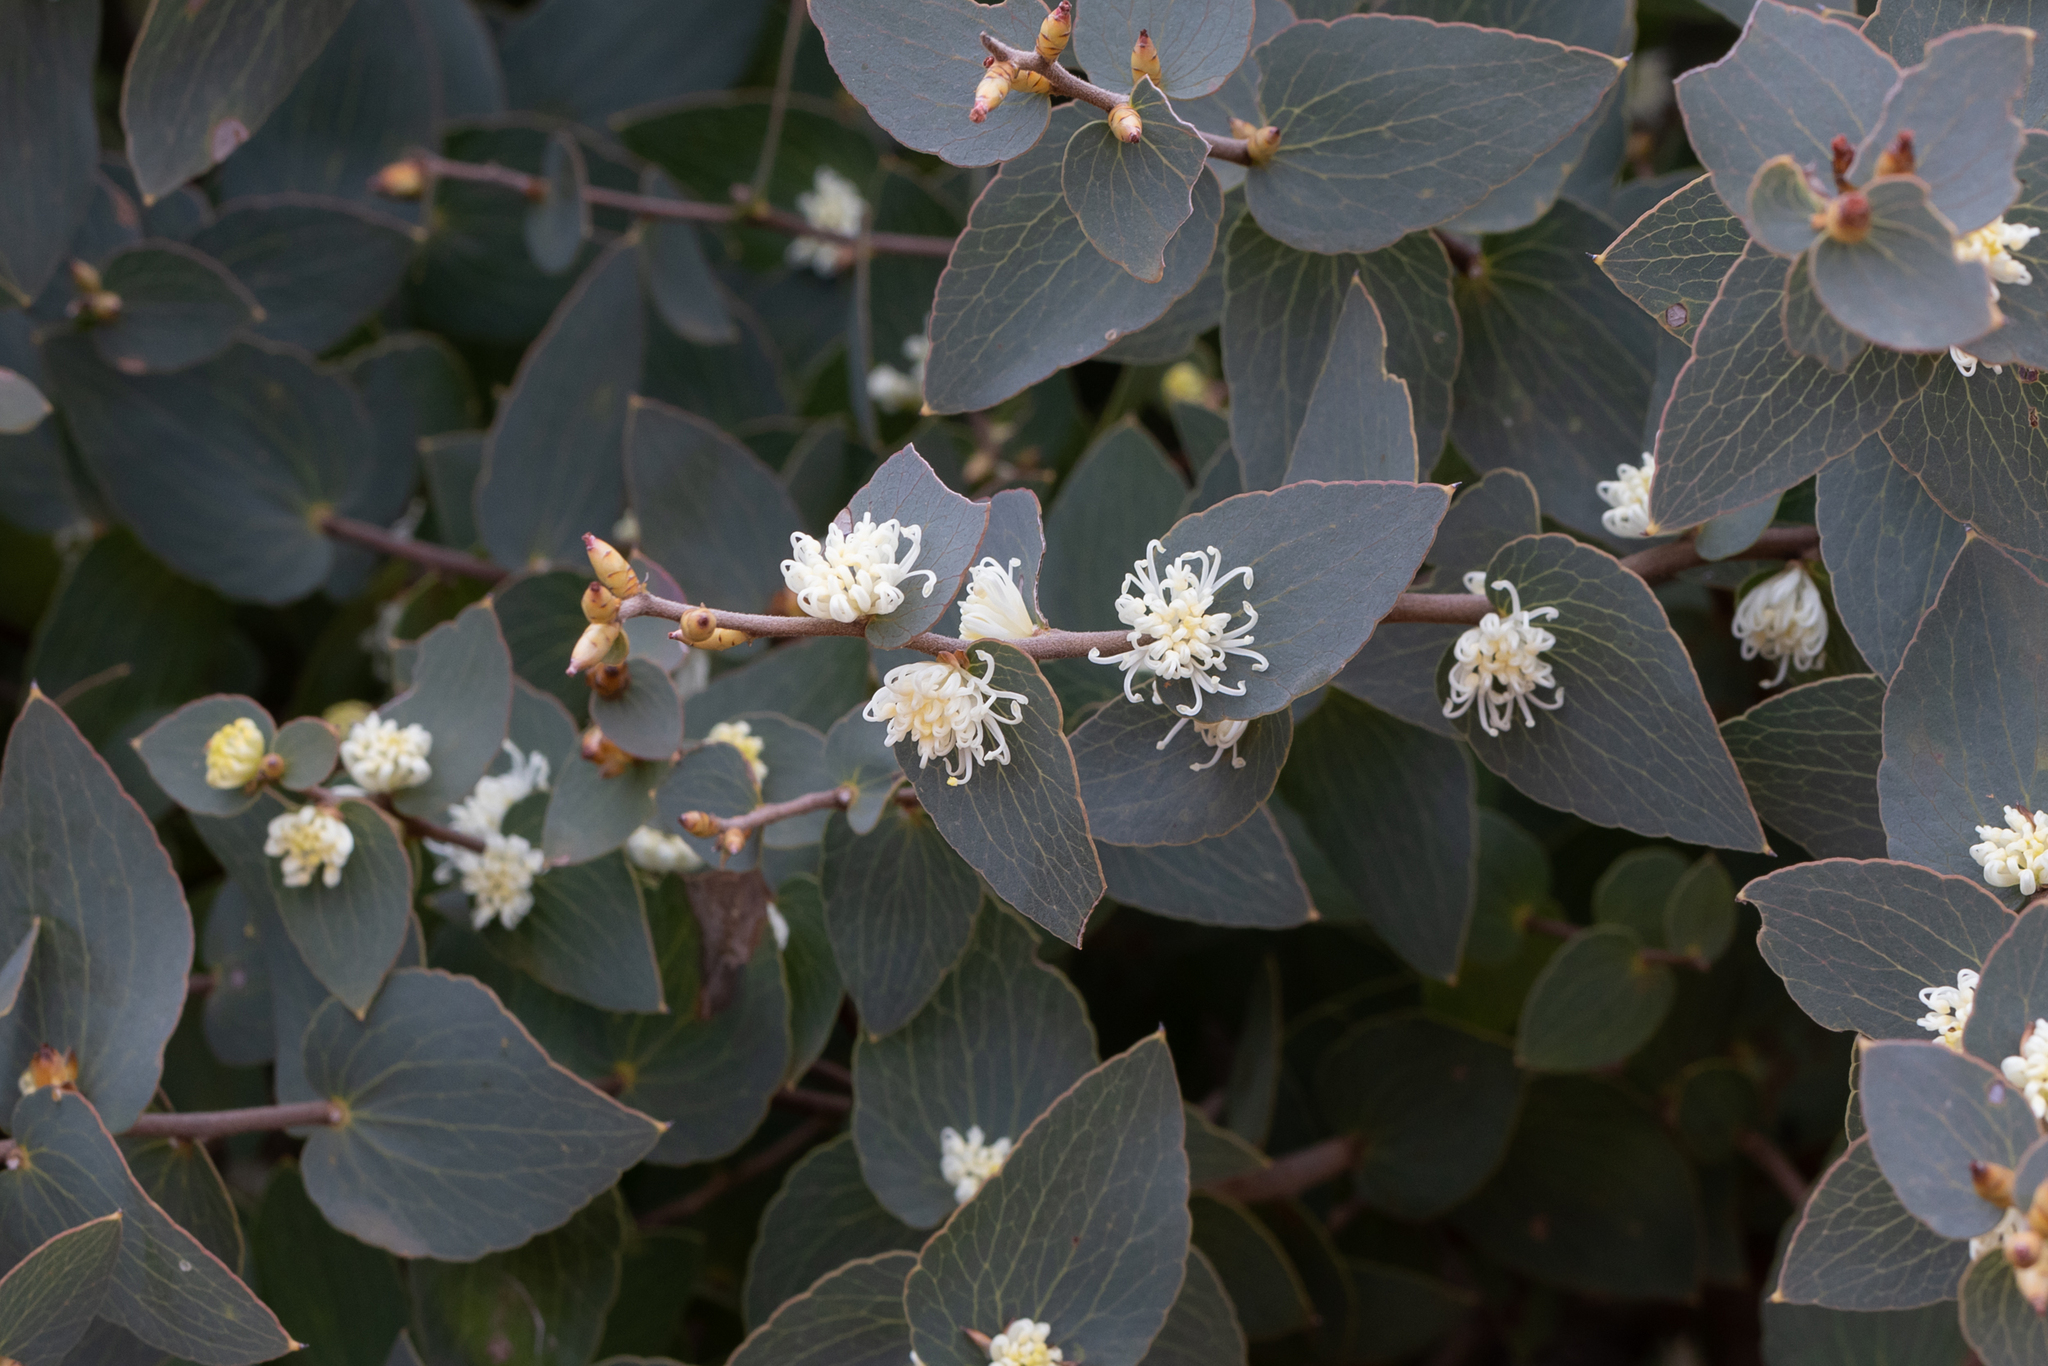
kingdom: Plantae
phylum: Tracheophyta
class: Magnoliopsida
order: Proteales
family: Proteaceae
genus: Hakea
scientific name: Hakea ferruginea
